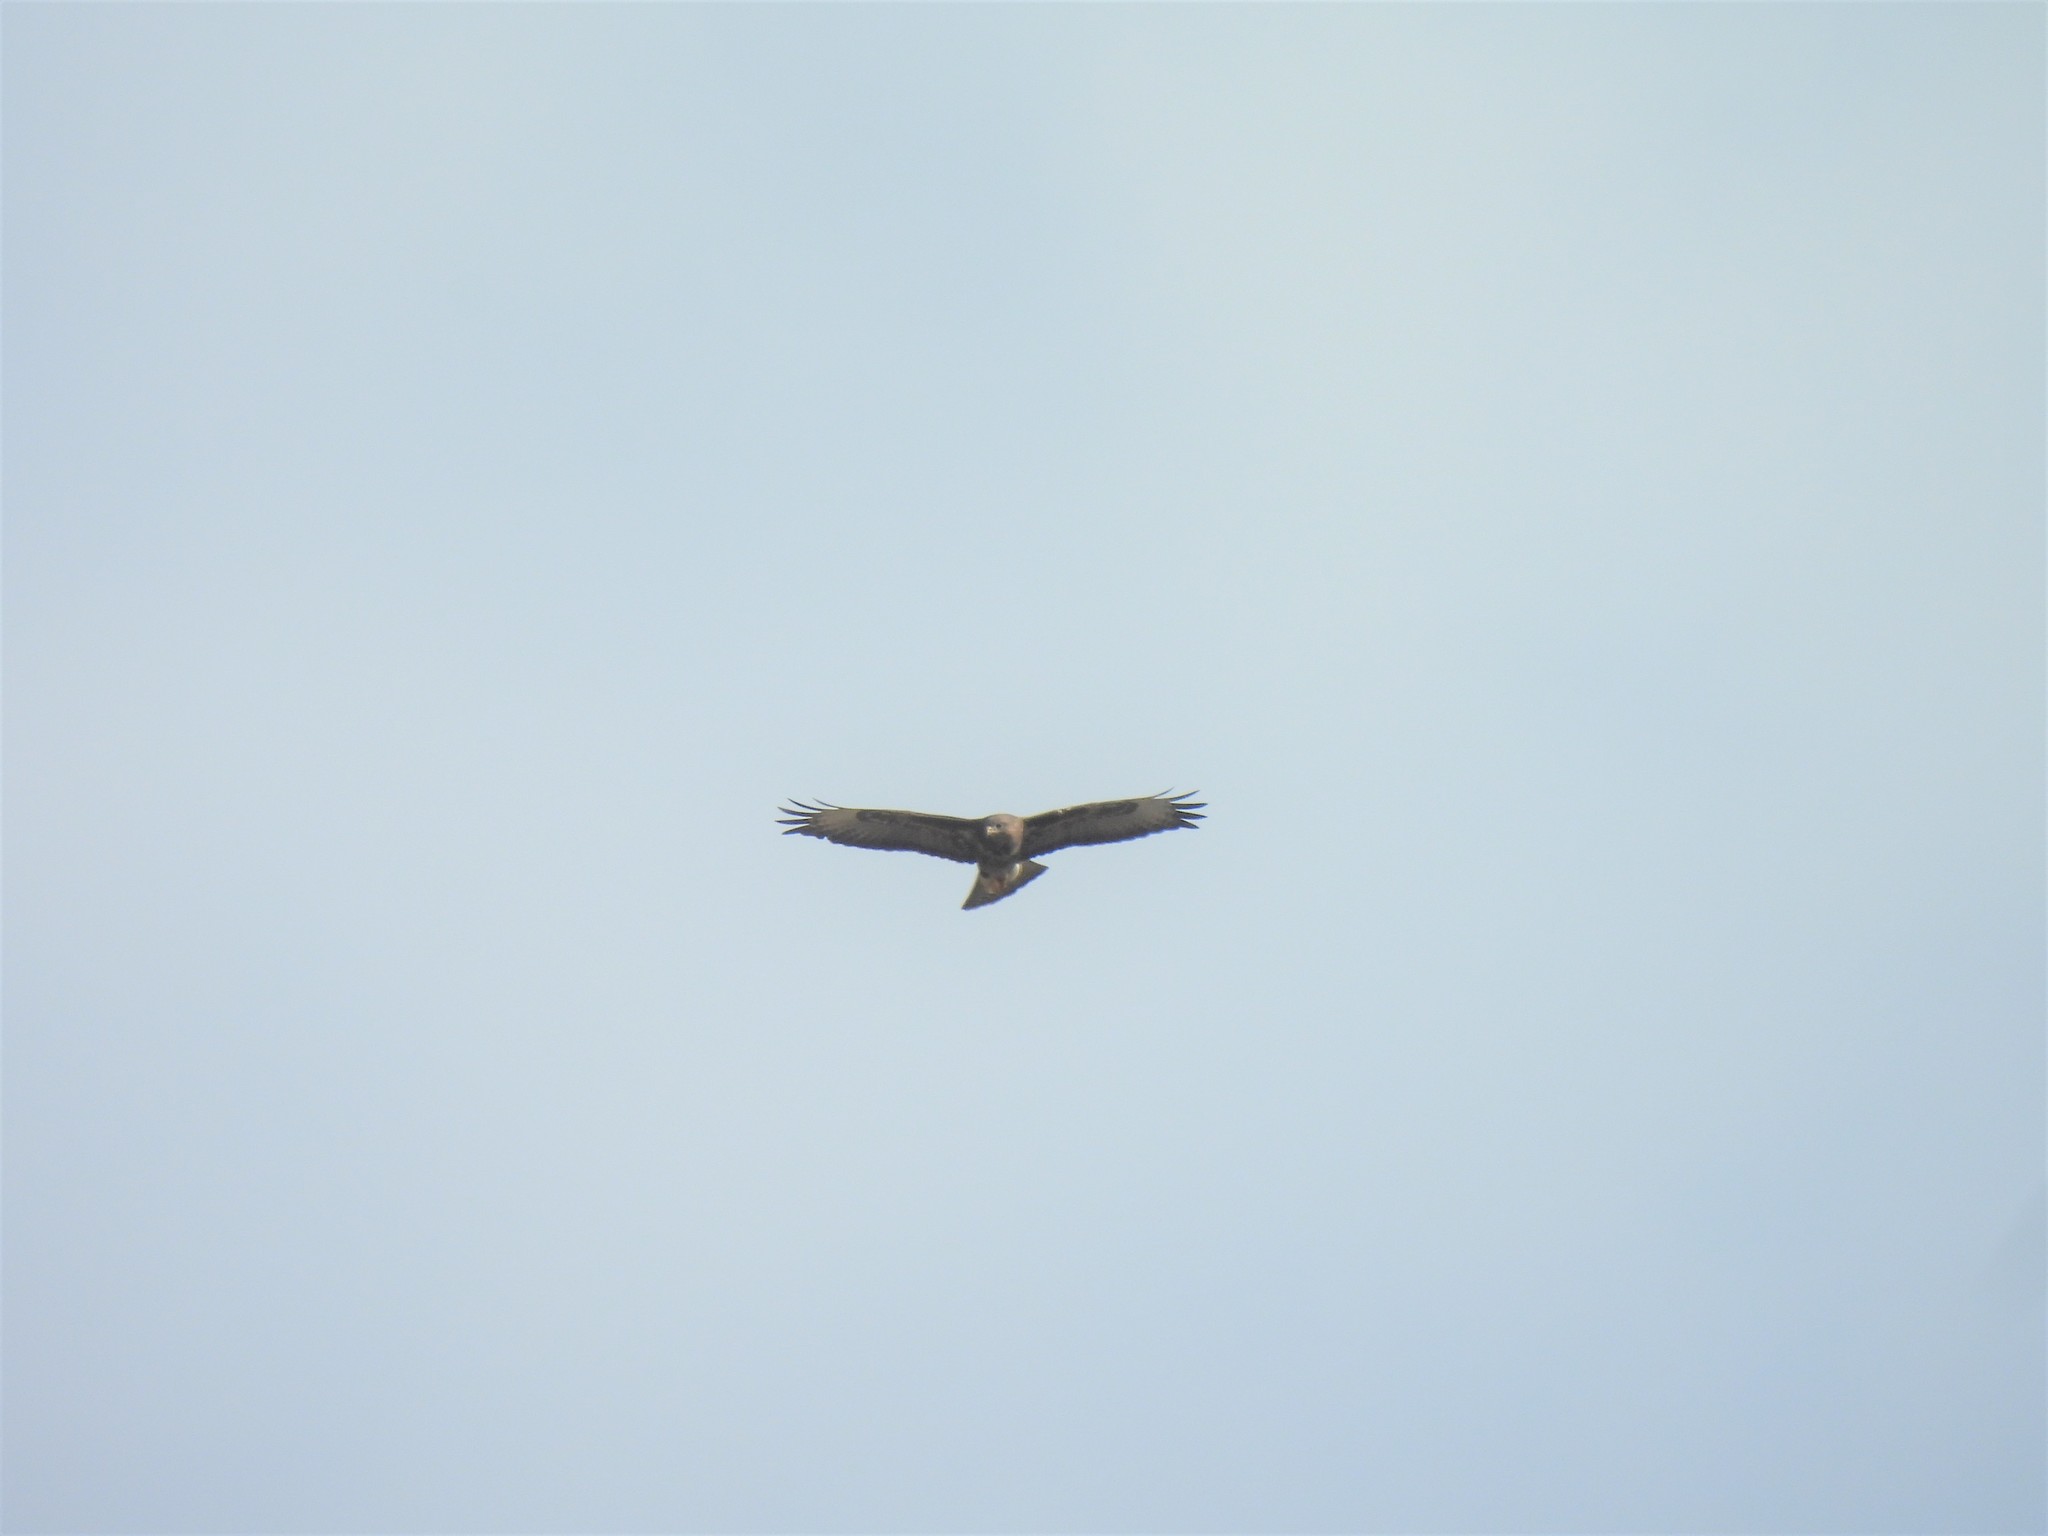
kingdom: Animalia
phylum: Chordata
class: Aves
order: Accipitriformes
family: Accipitridae
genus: Buteo
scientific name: Buteo buteo
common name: Common buzzard
